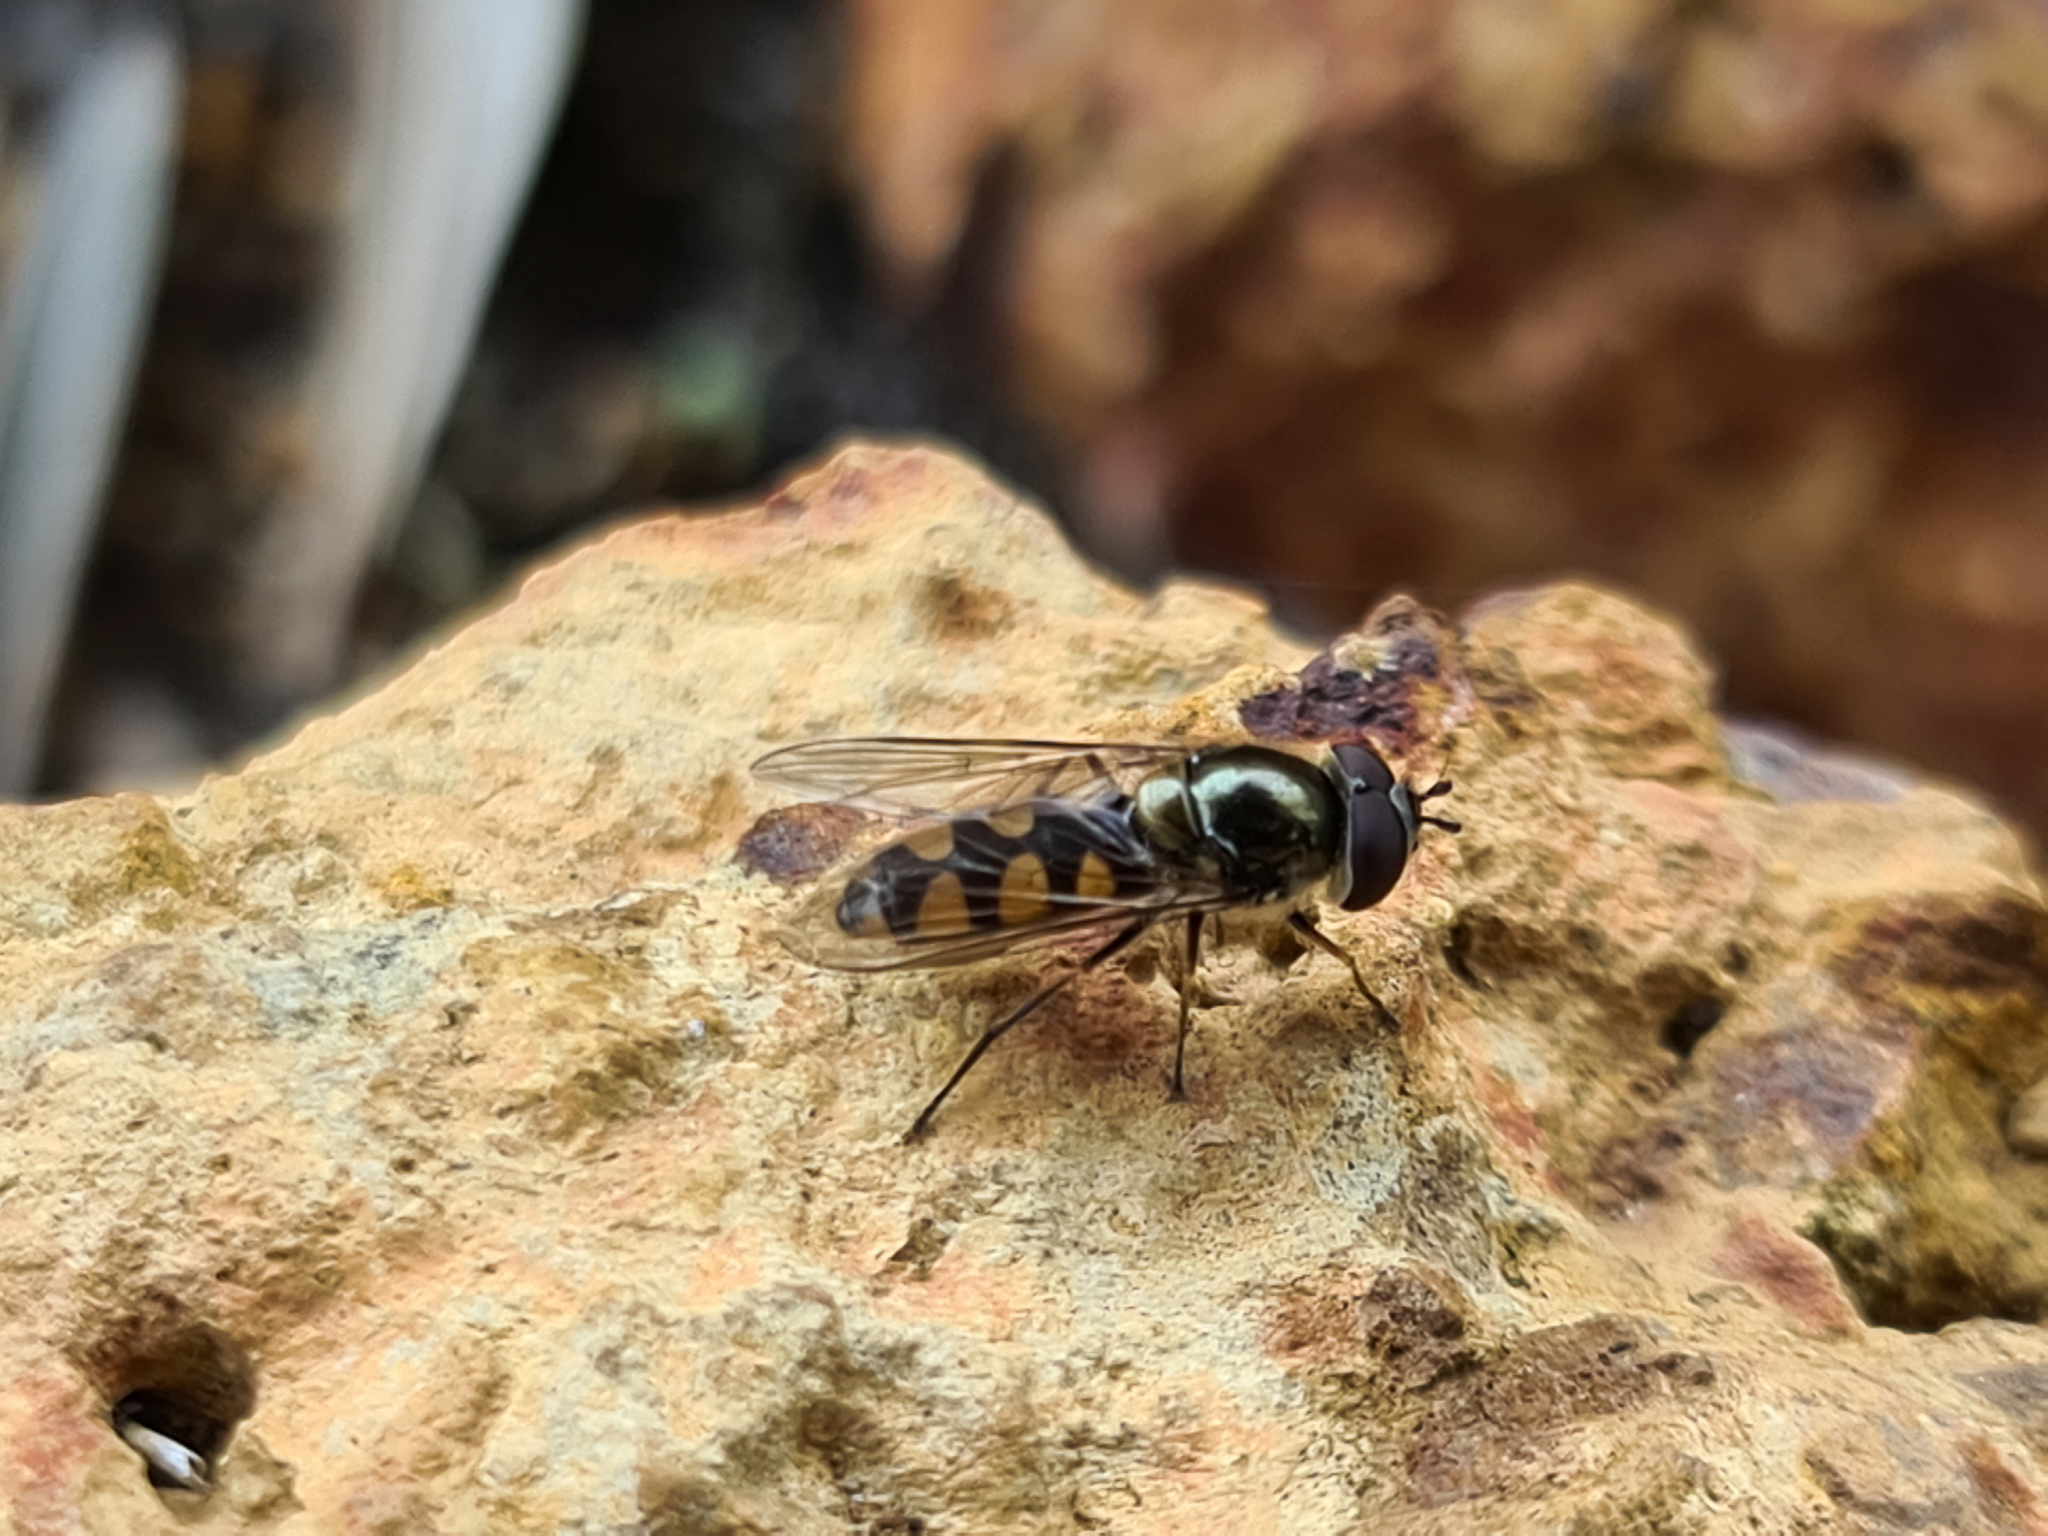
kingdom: Animalia
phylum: Arthropoda
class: Insecta
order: Diptera
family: Syrphidae
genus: Melangyna
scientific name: Melangyna viridiceps
